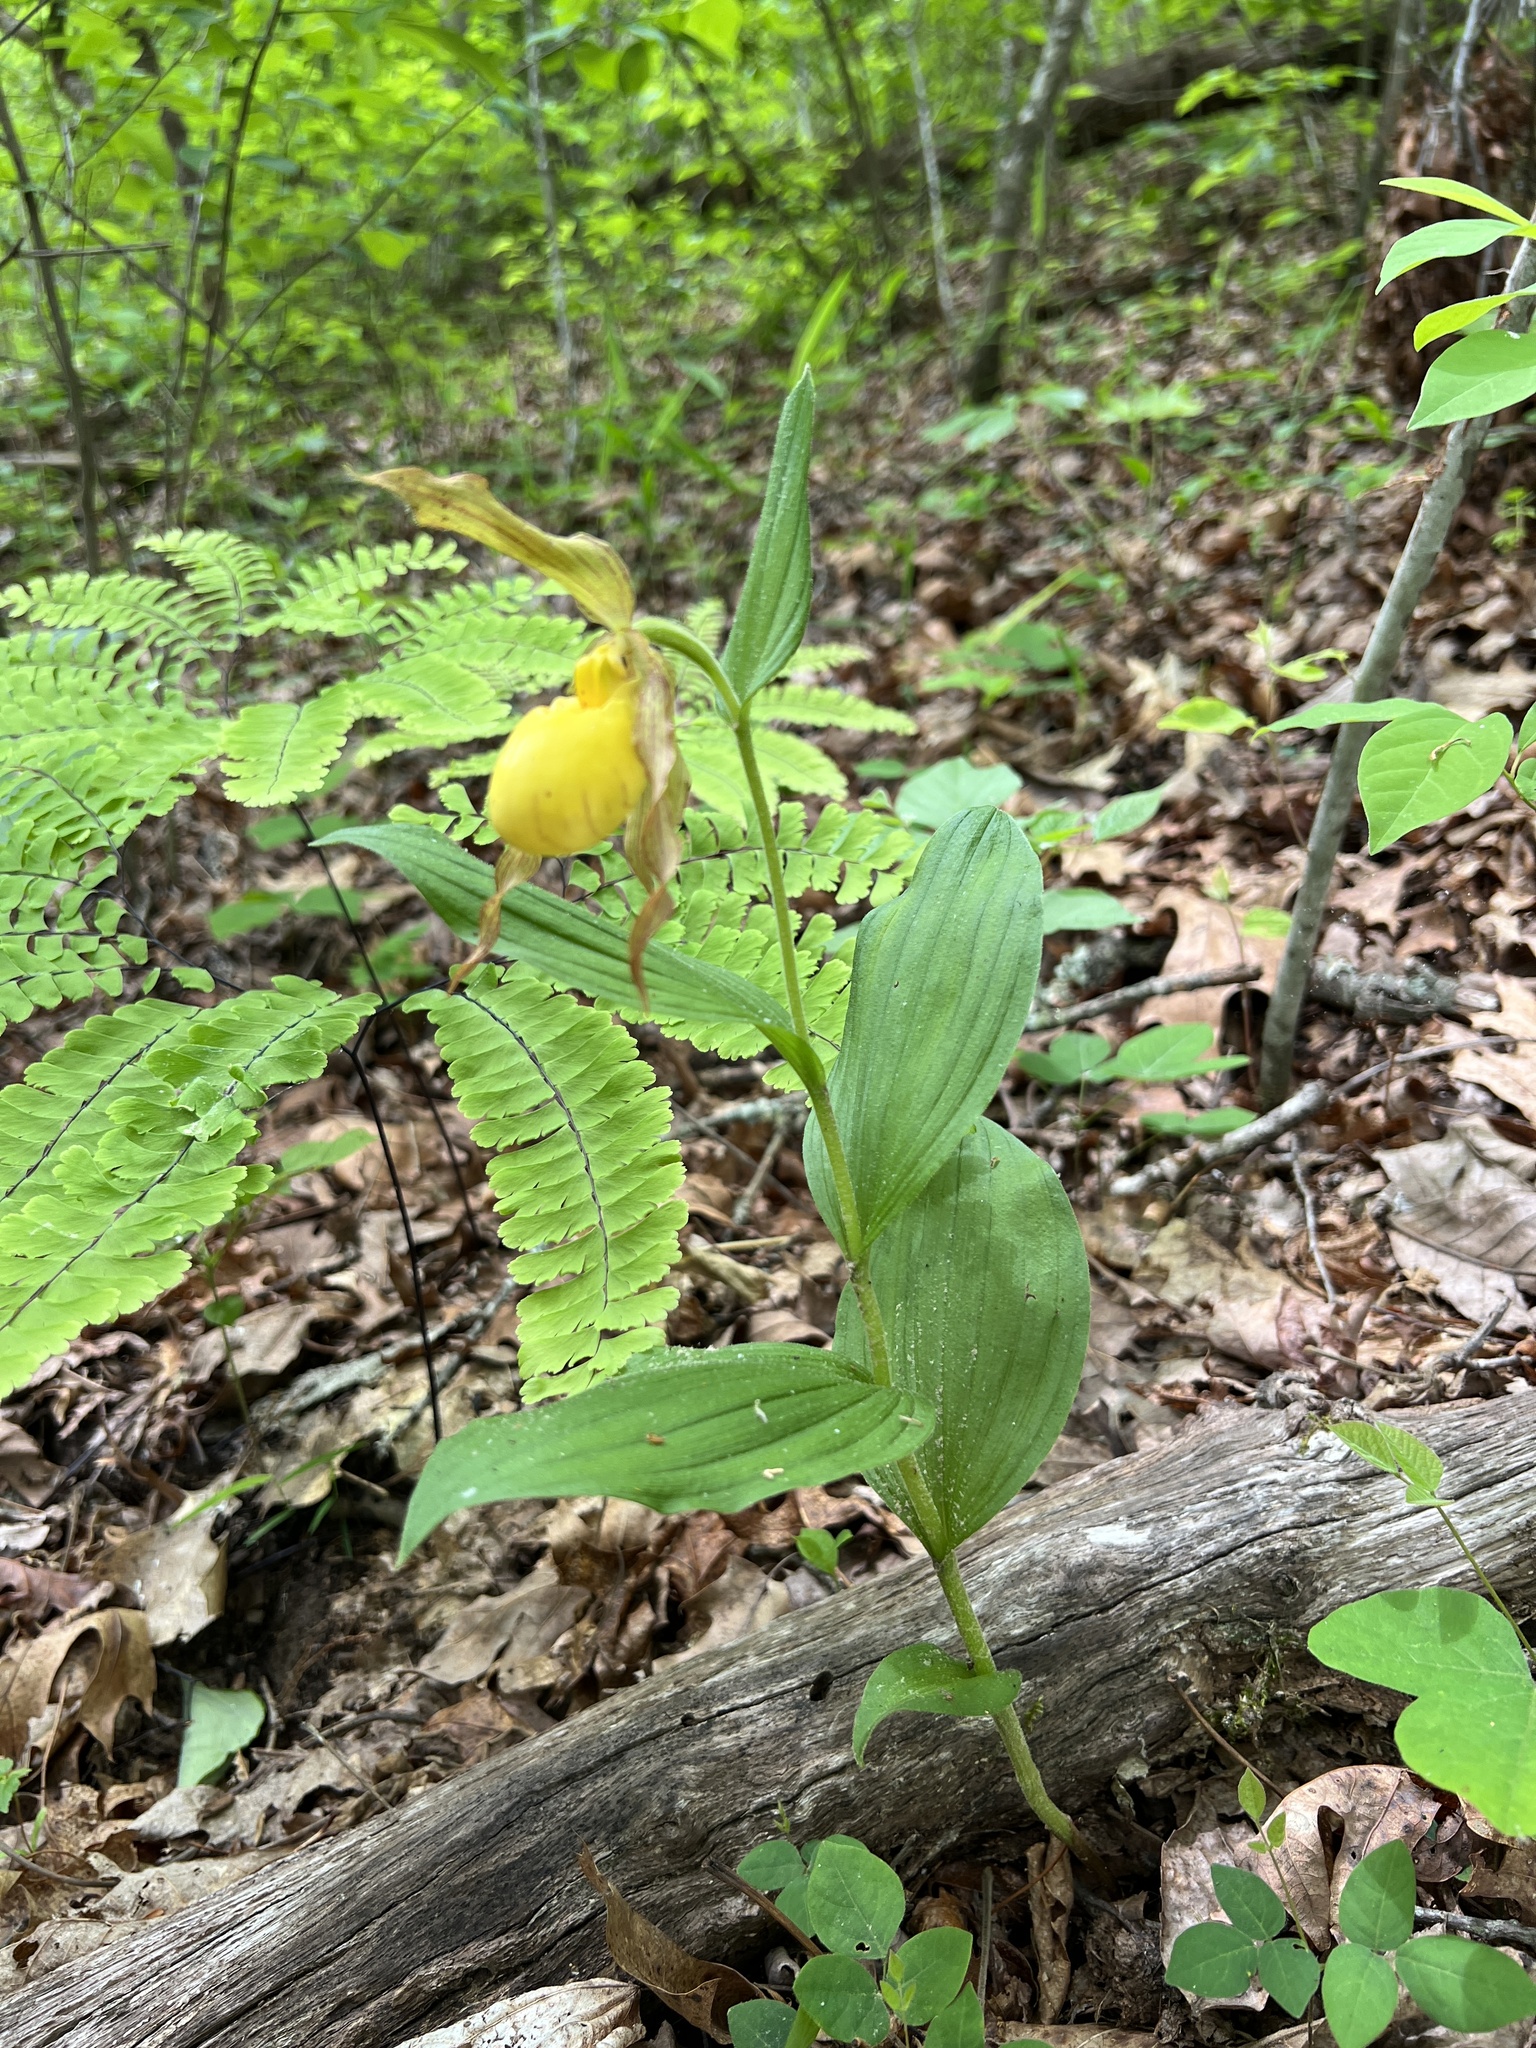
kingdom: Plantae
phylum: Tracheophyta
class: Liliopsida
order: Asparagales
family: Orchidaceae
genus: Cypripedium
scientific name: Cypripedium parviflorum
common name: American yellow lady's-slipper
